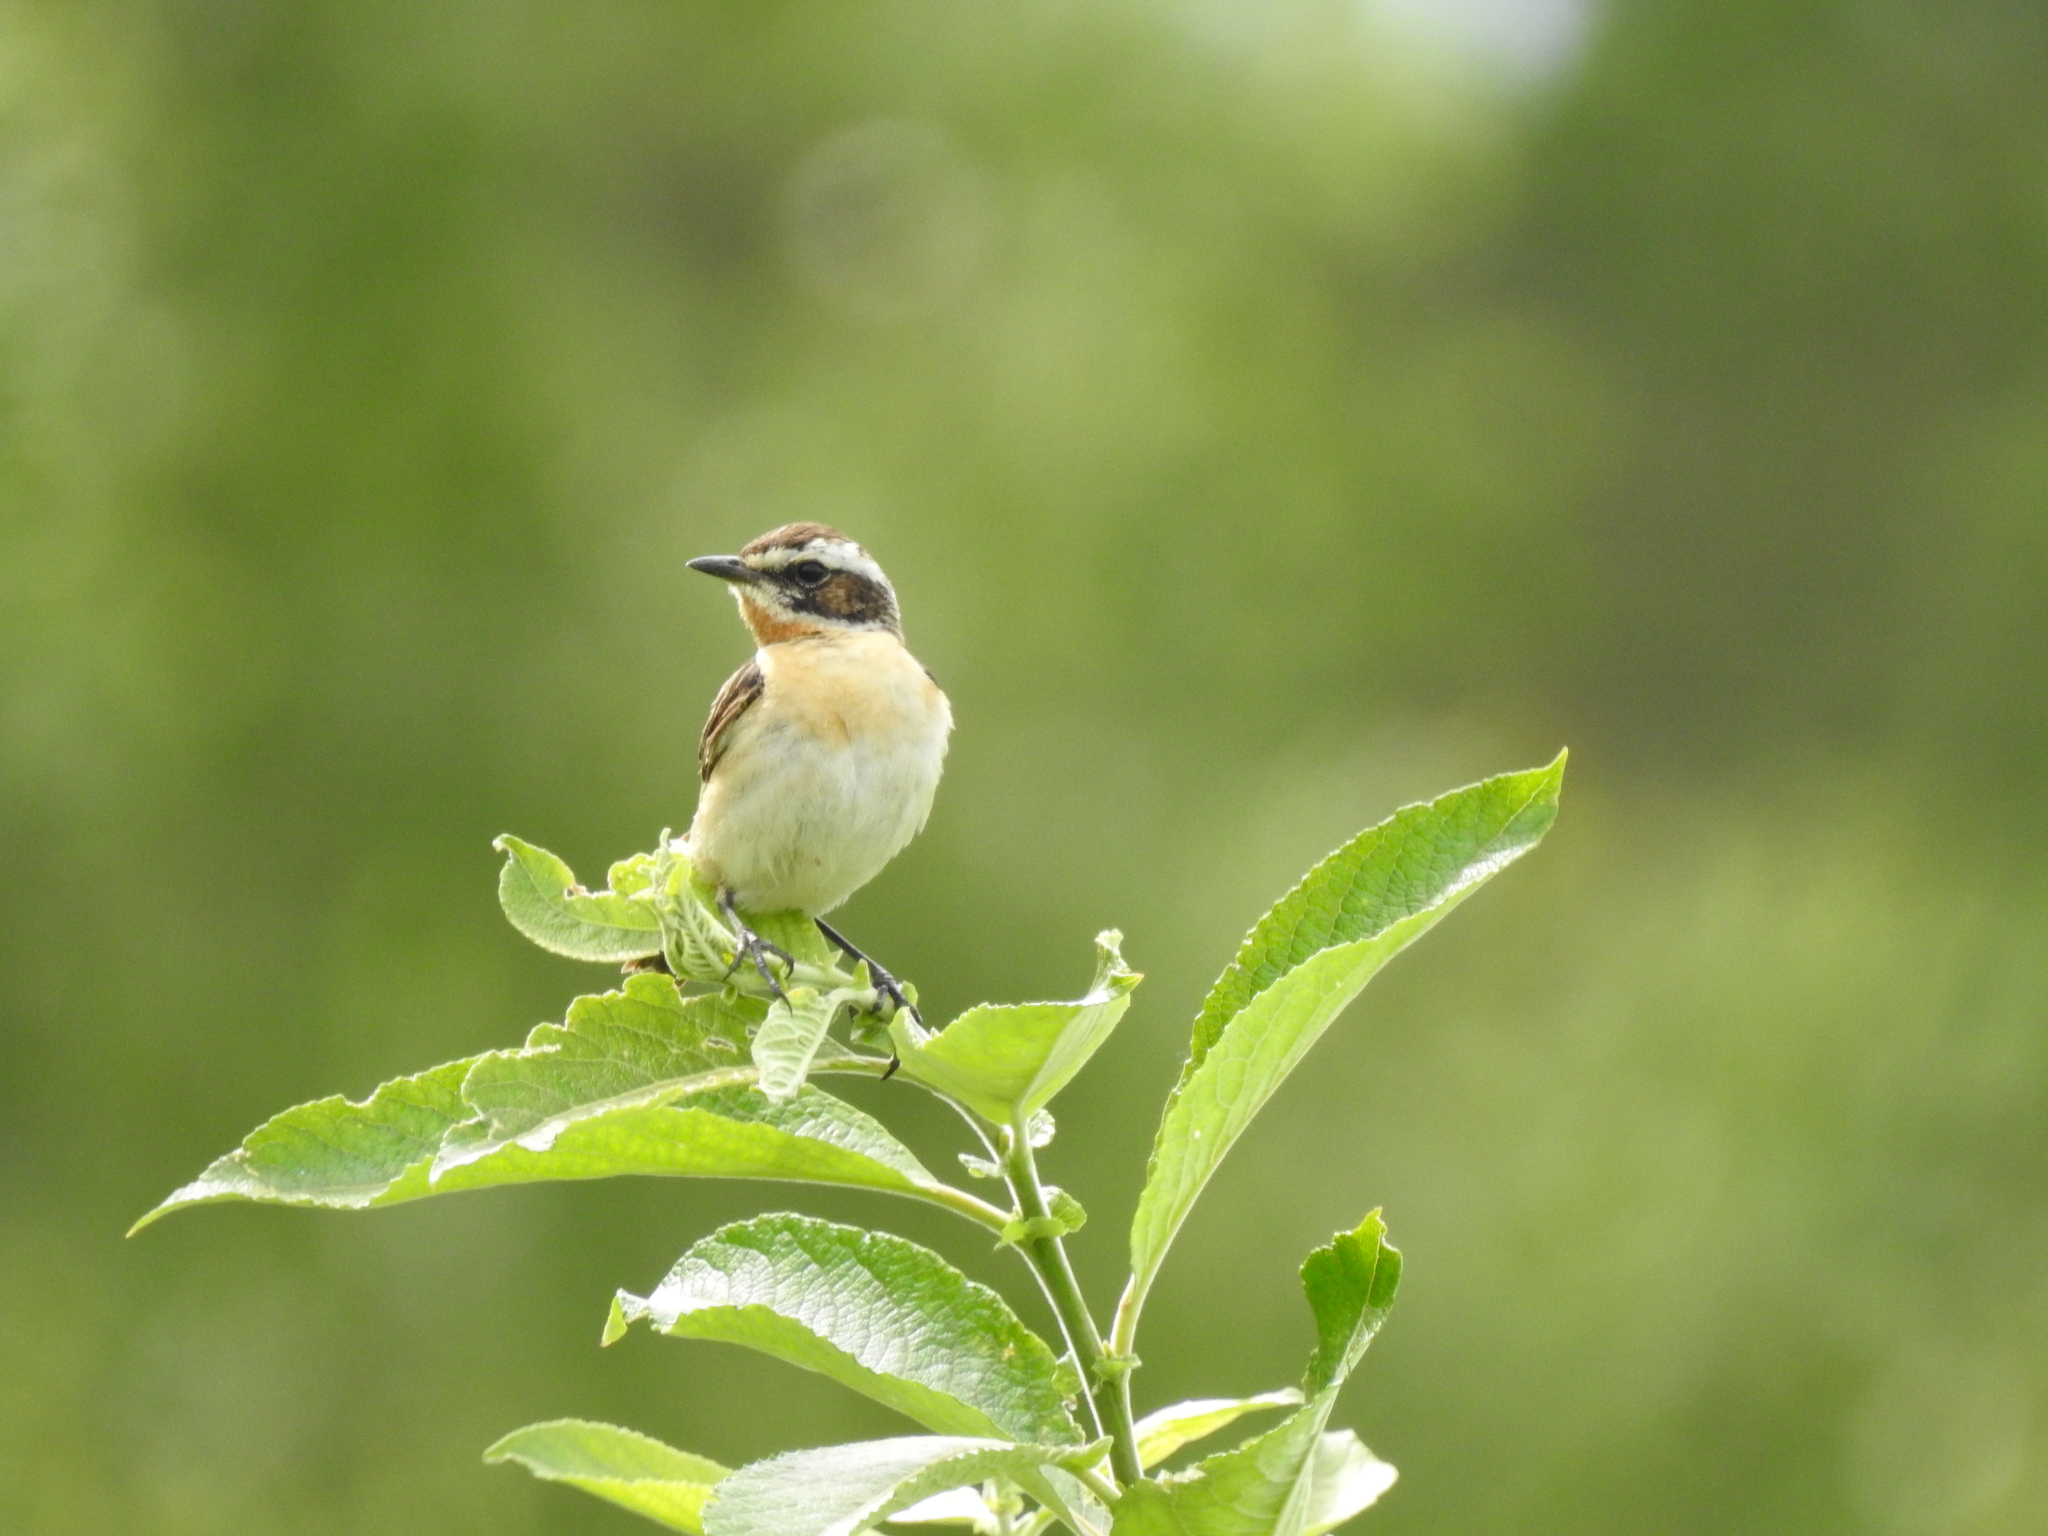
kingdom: Animalia
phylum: Chordata
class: Aves
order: Passeriformes
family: Muscicapidae
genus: Saxicola
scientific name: Saxicola rubetra
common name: Whinchat
